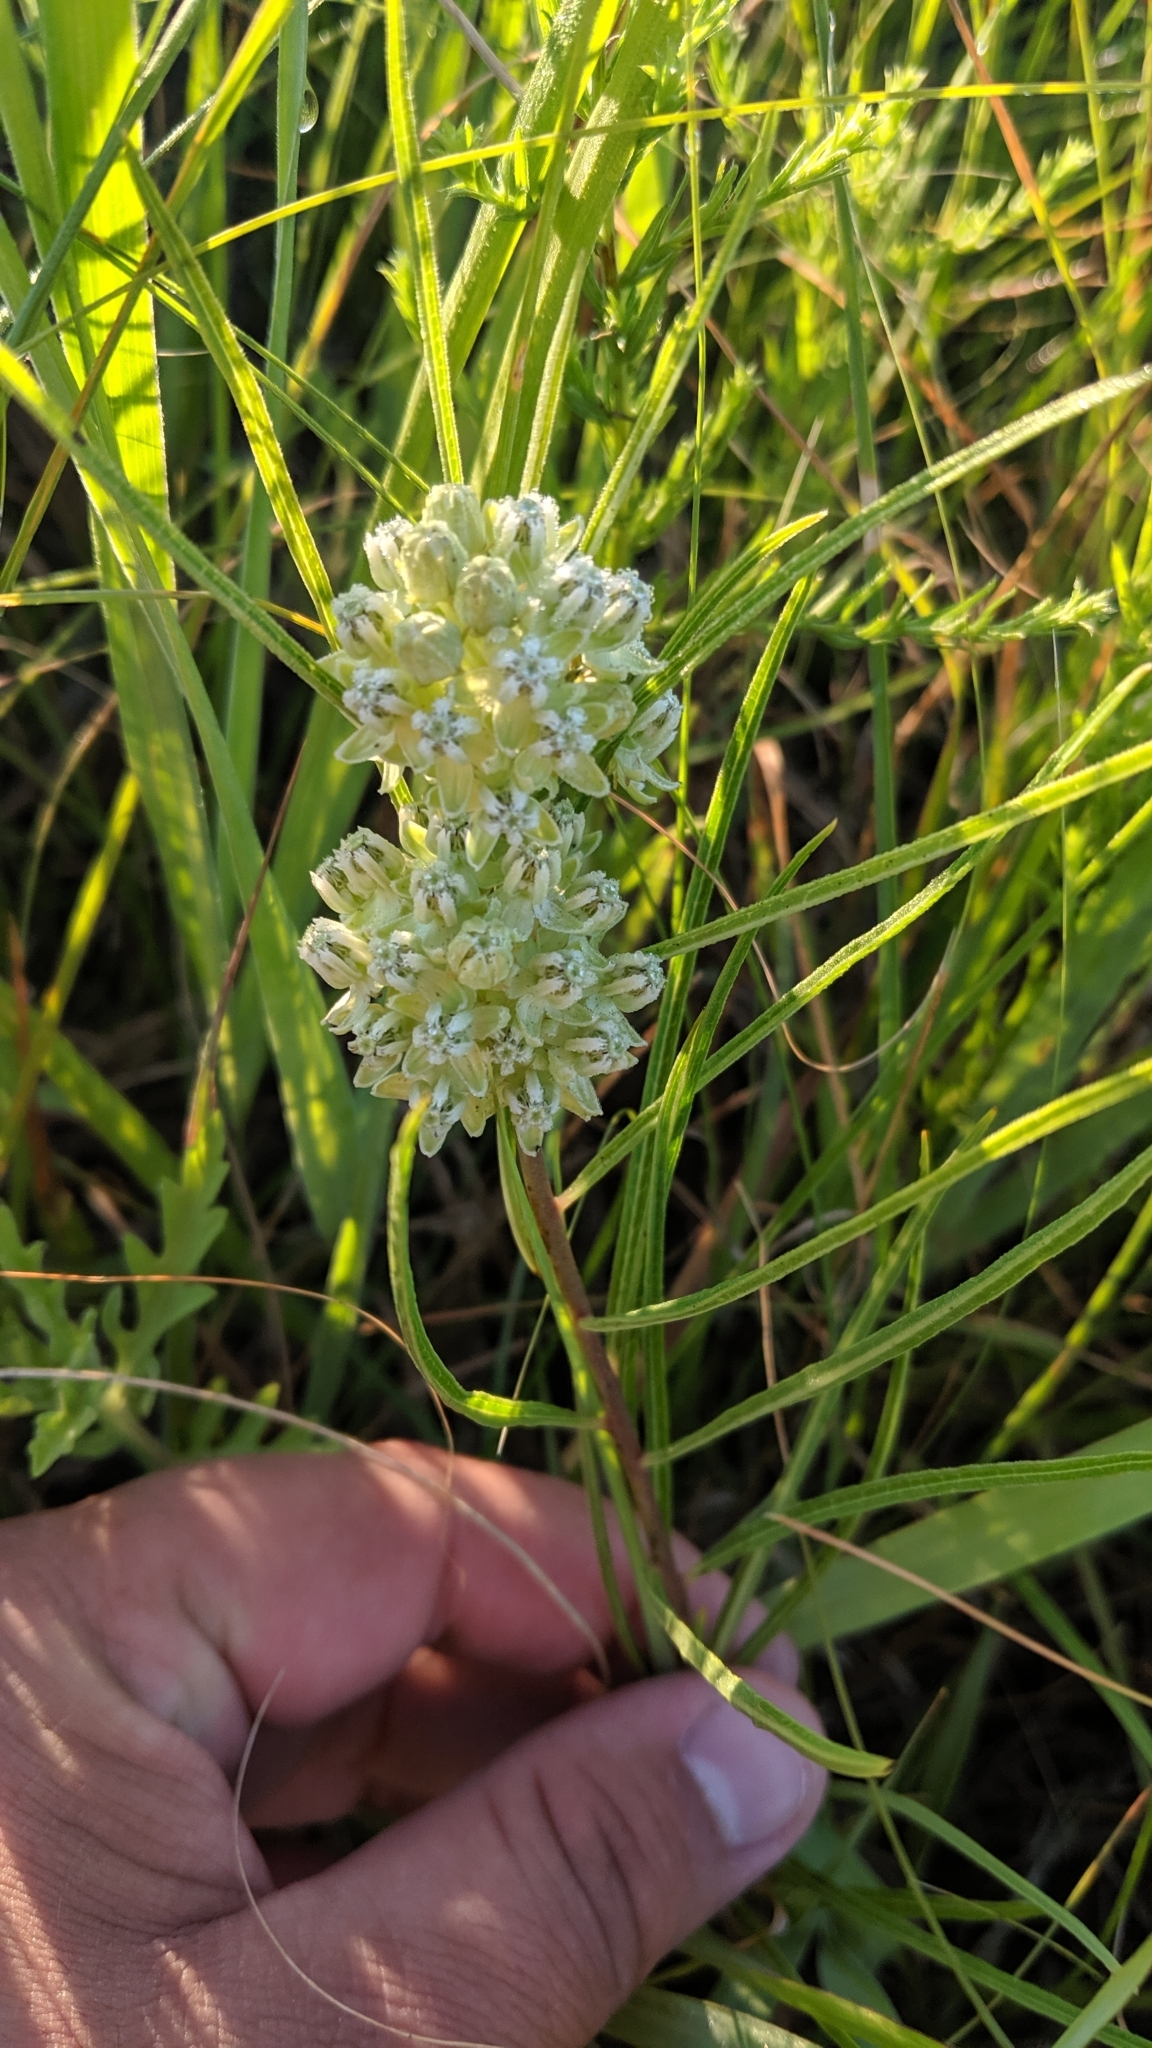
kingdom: Plantae
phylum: Tracheophyta
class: Magnoliopsida
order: Gentianales
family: Apocynaceae
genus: Asclepias
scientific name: Asclepias stenophylla
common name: Narrow-leaf milkweed
